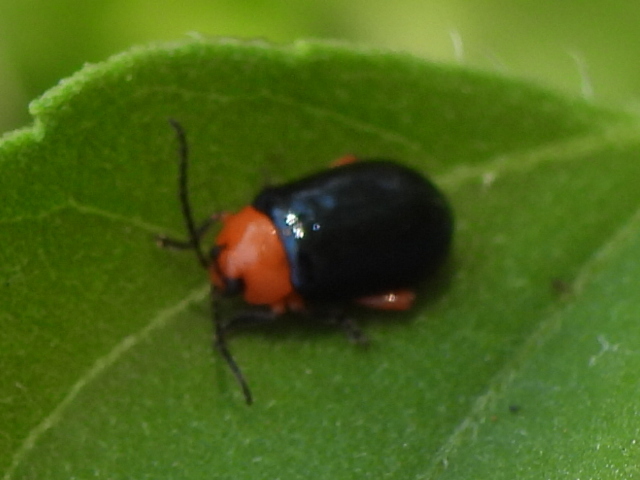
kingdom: Animalia
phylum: Arthropoda
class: Insecta
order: Coleoptera
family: Chrysomelidae
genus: Asphaera
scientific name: Asphaera lustrans
